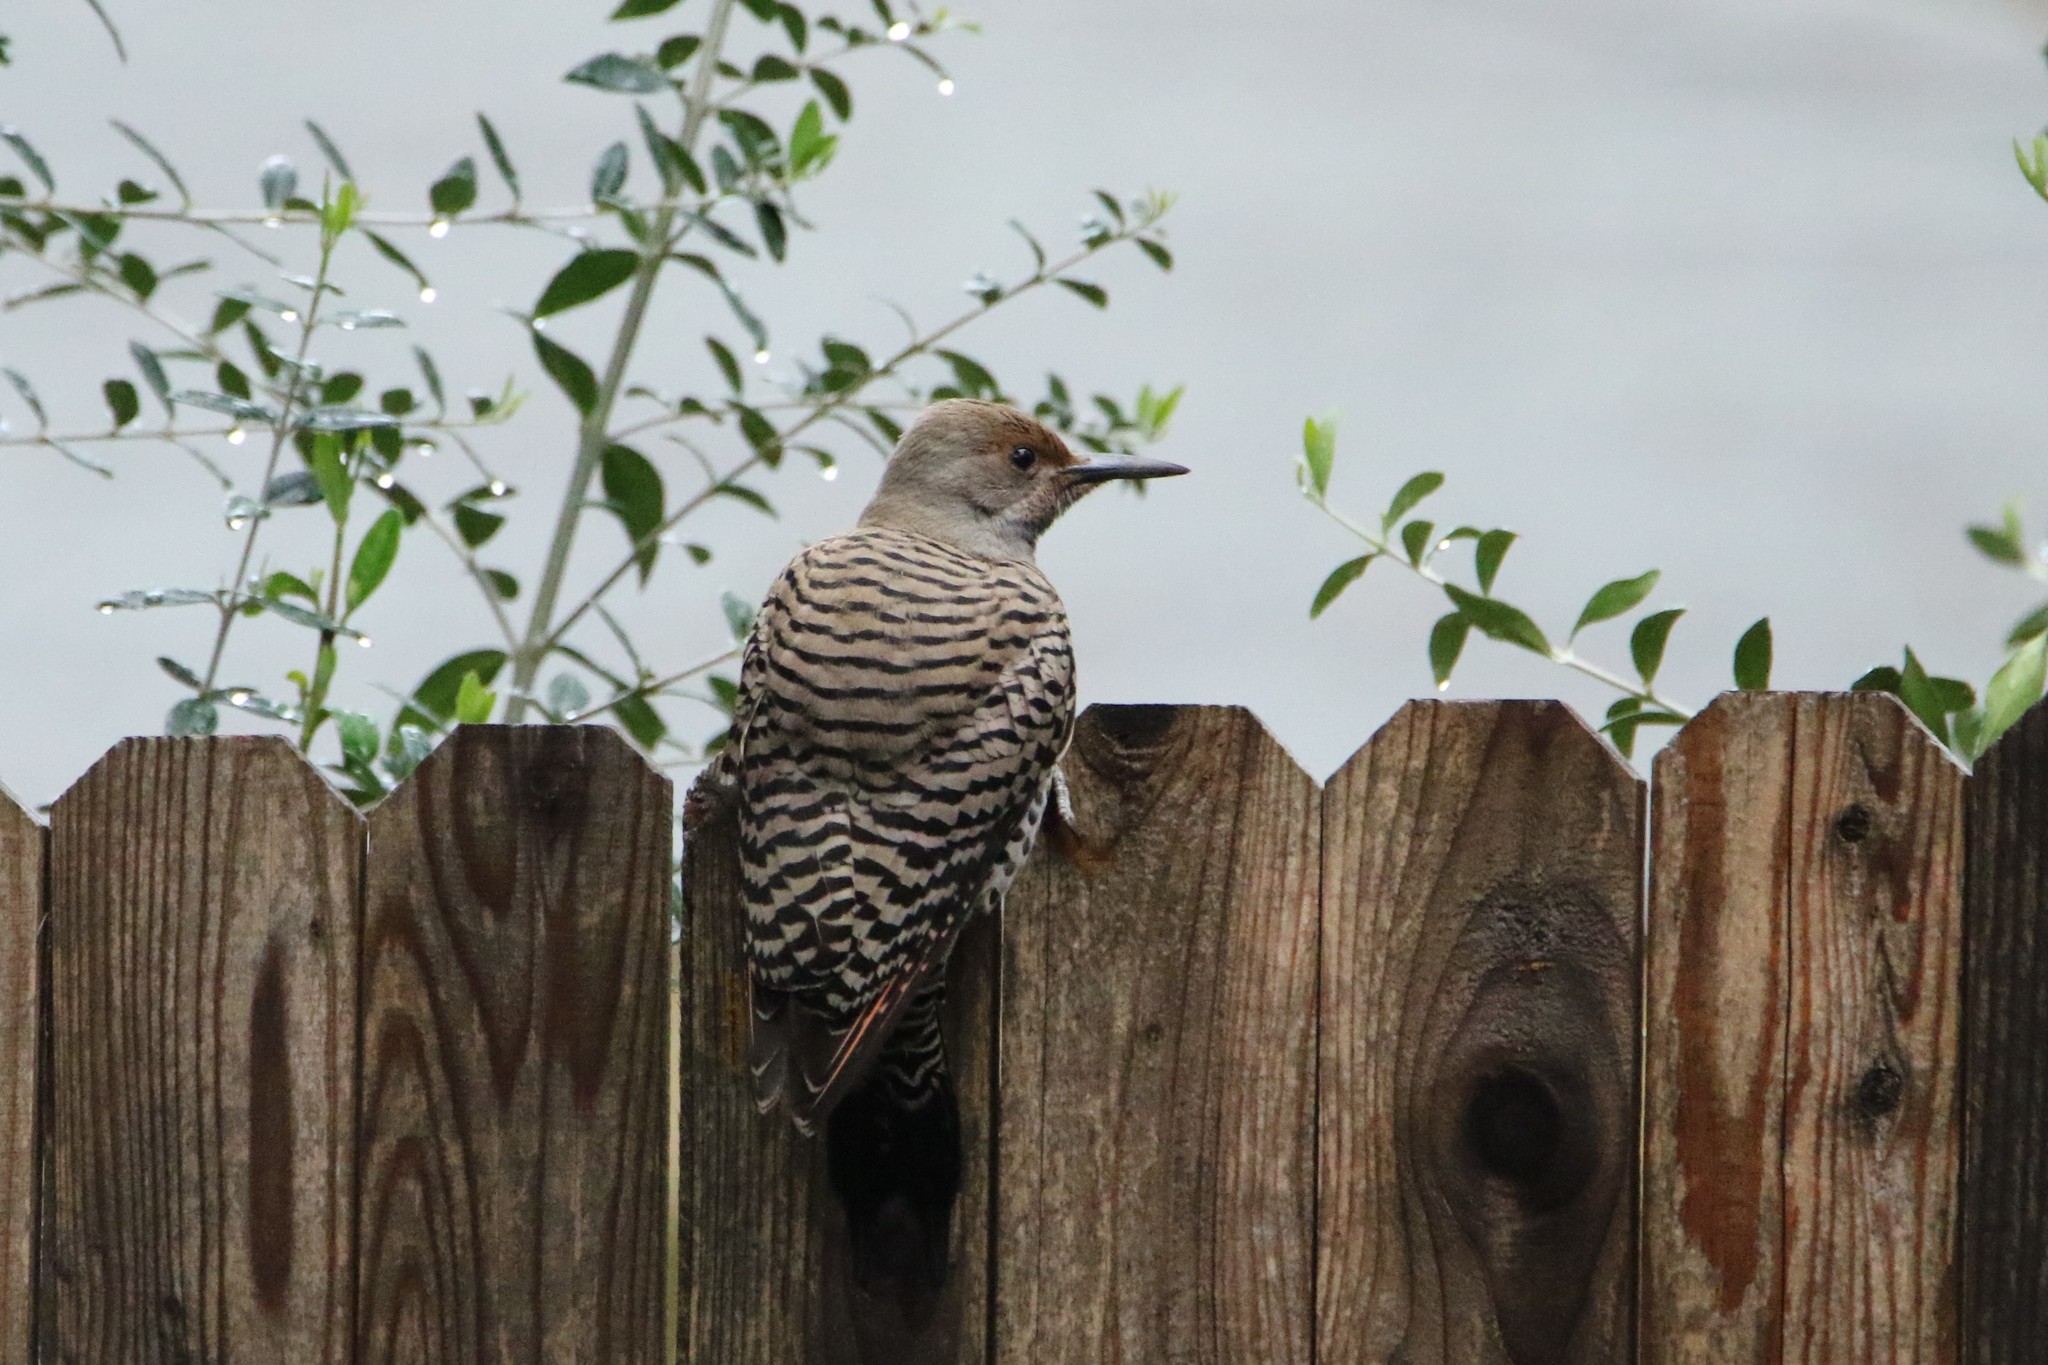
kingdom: Animalia
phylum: Chordata
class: Aves
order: Piciformes
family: Picidae
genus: Colaptes
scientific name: Colaptes auratus
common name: Northern flicker
